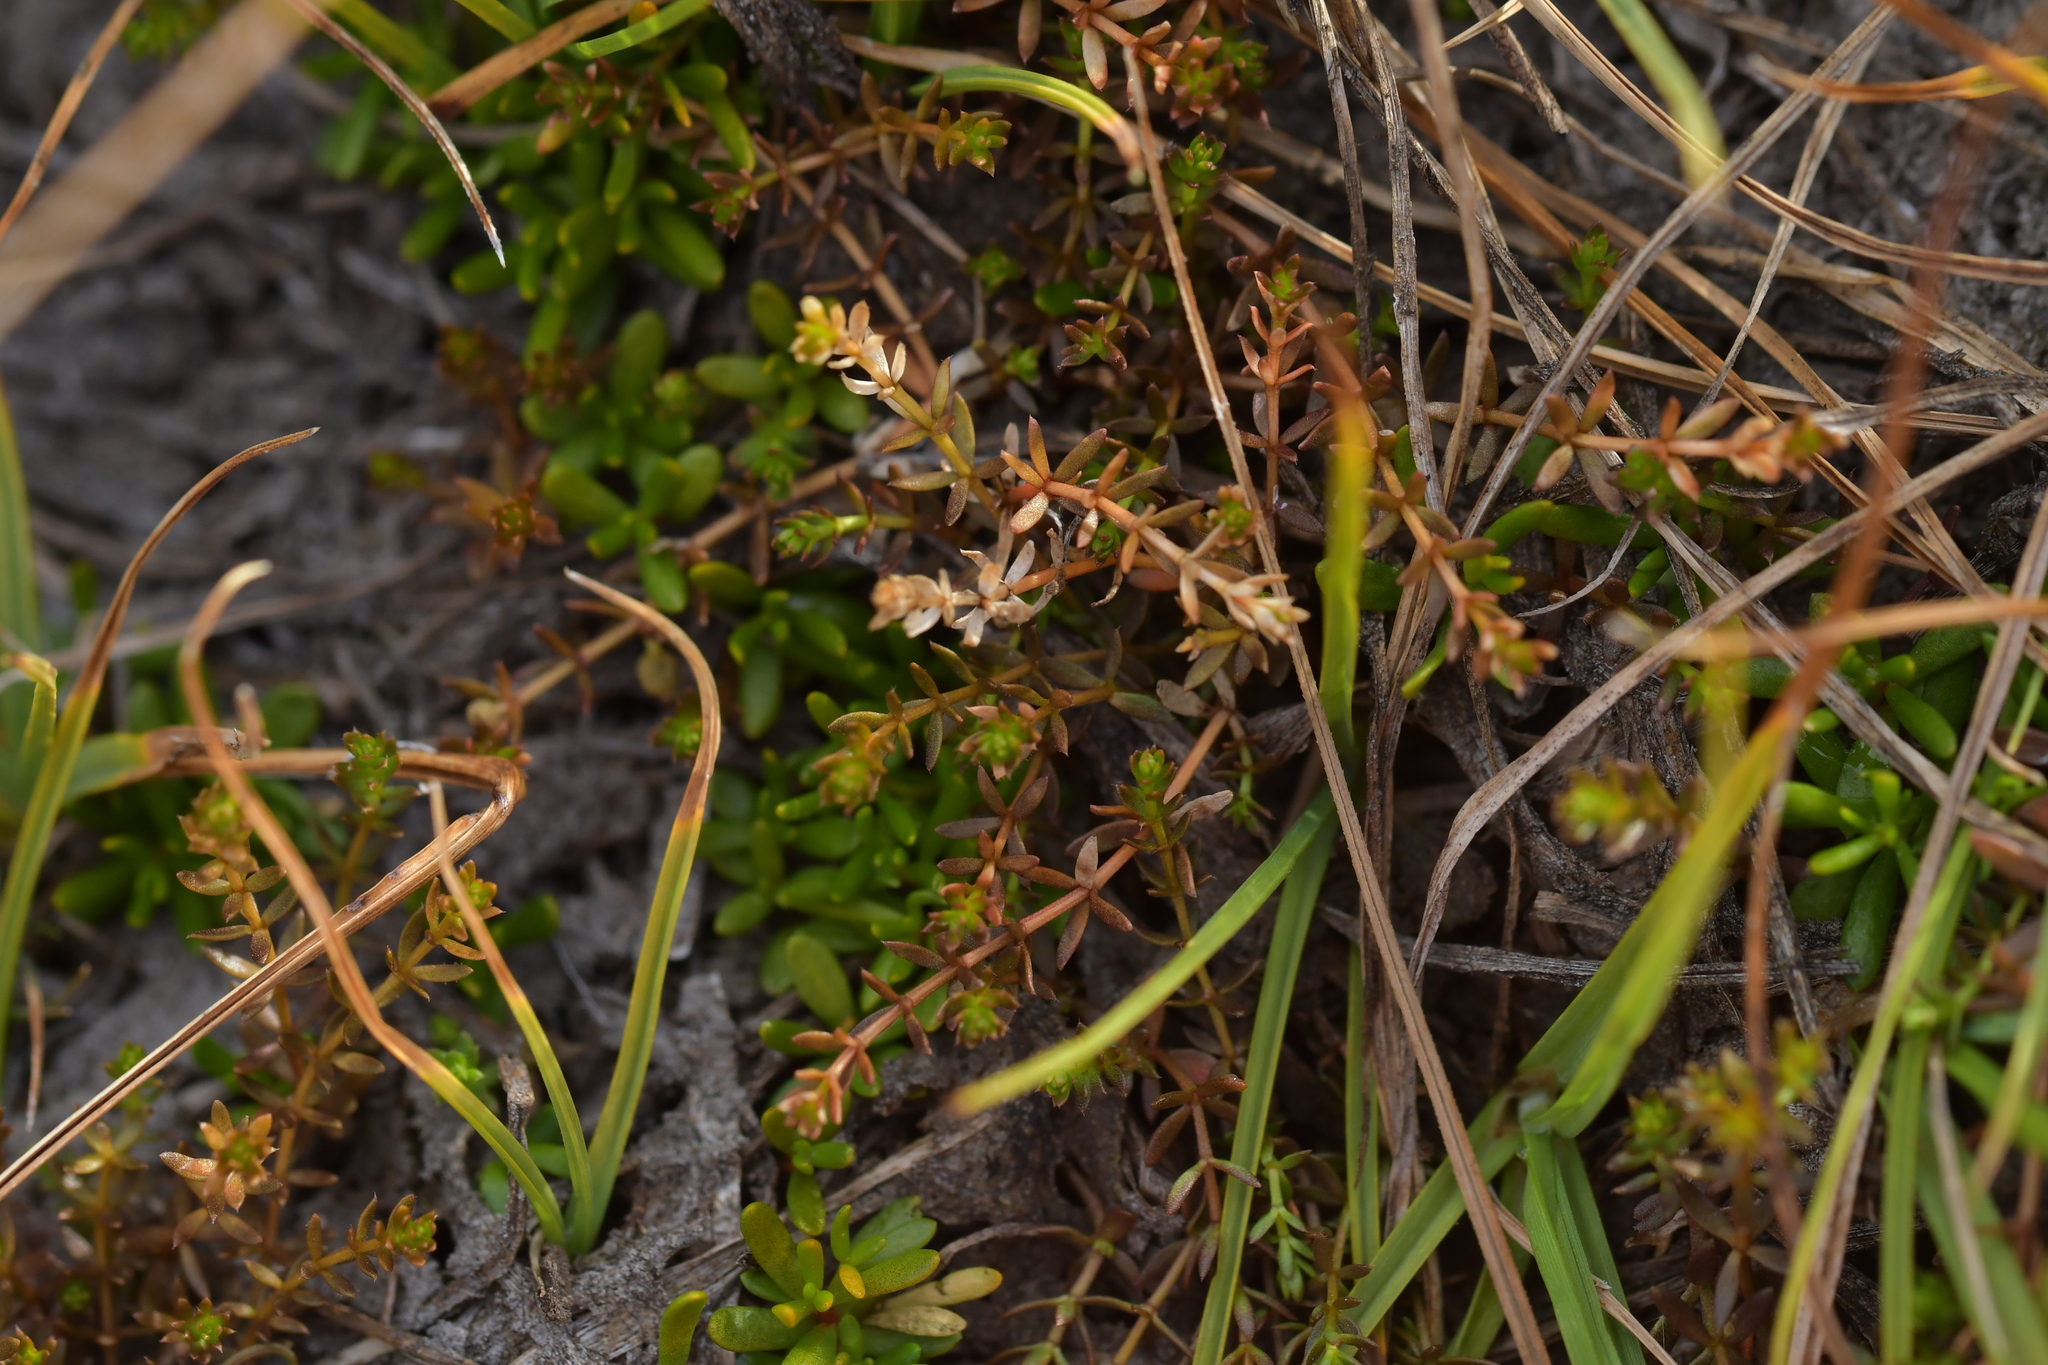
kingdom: Plantae
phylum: Tracheophyta
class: Magnoliopsida
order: Gentianales
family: Rubiaceae
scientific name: Rubiaceae
